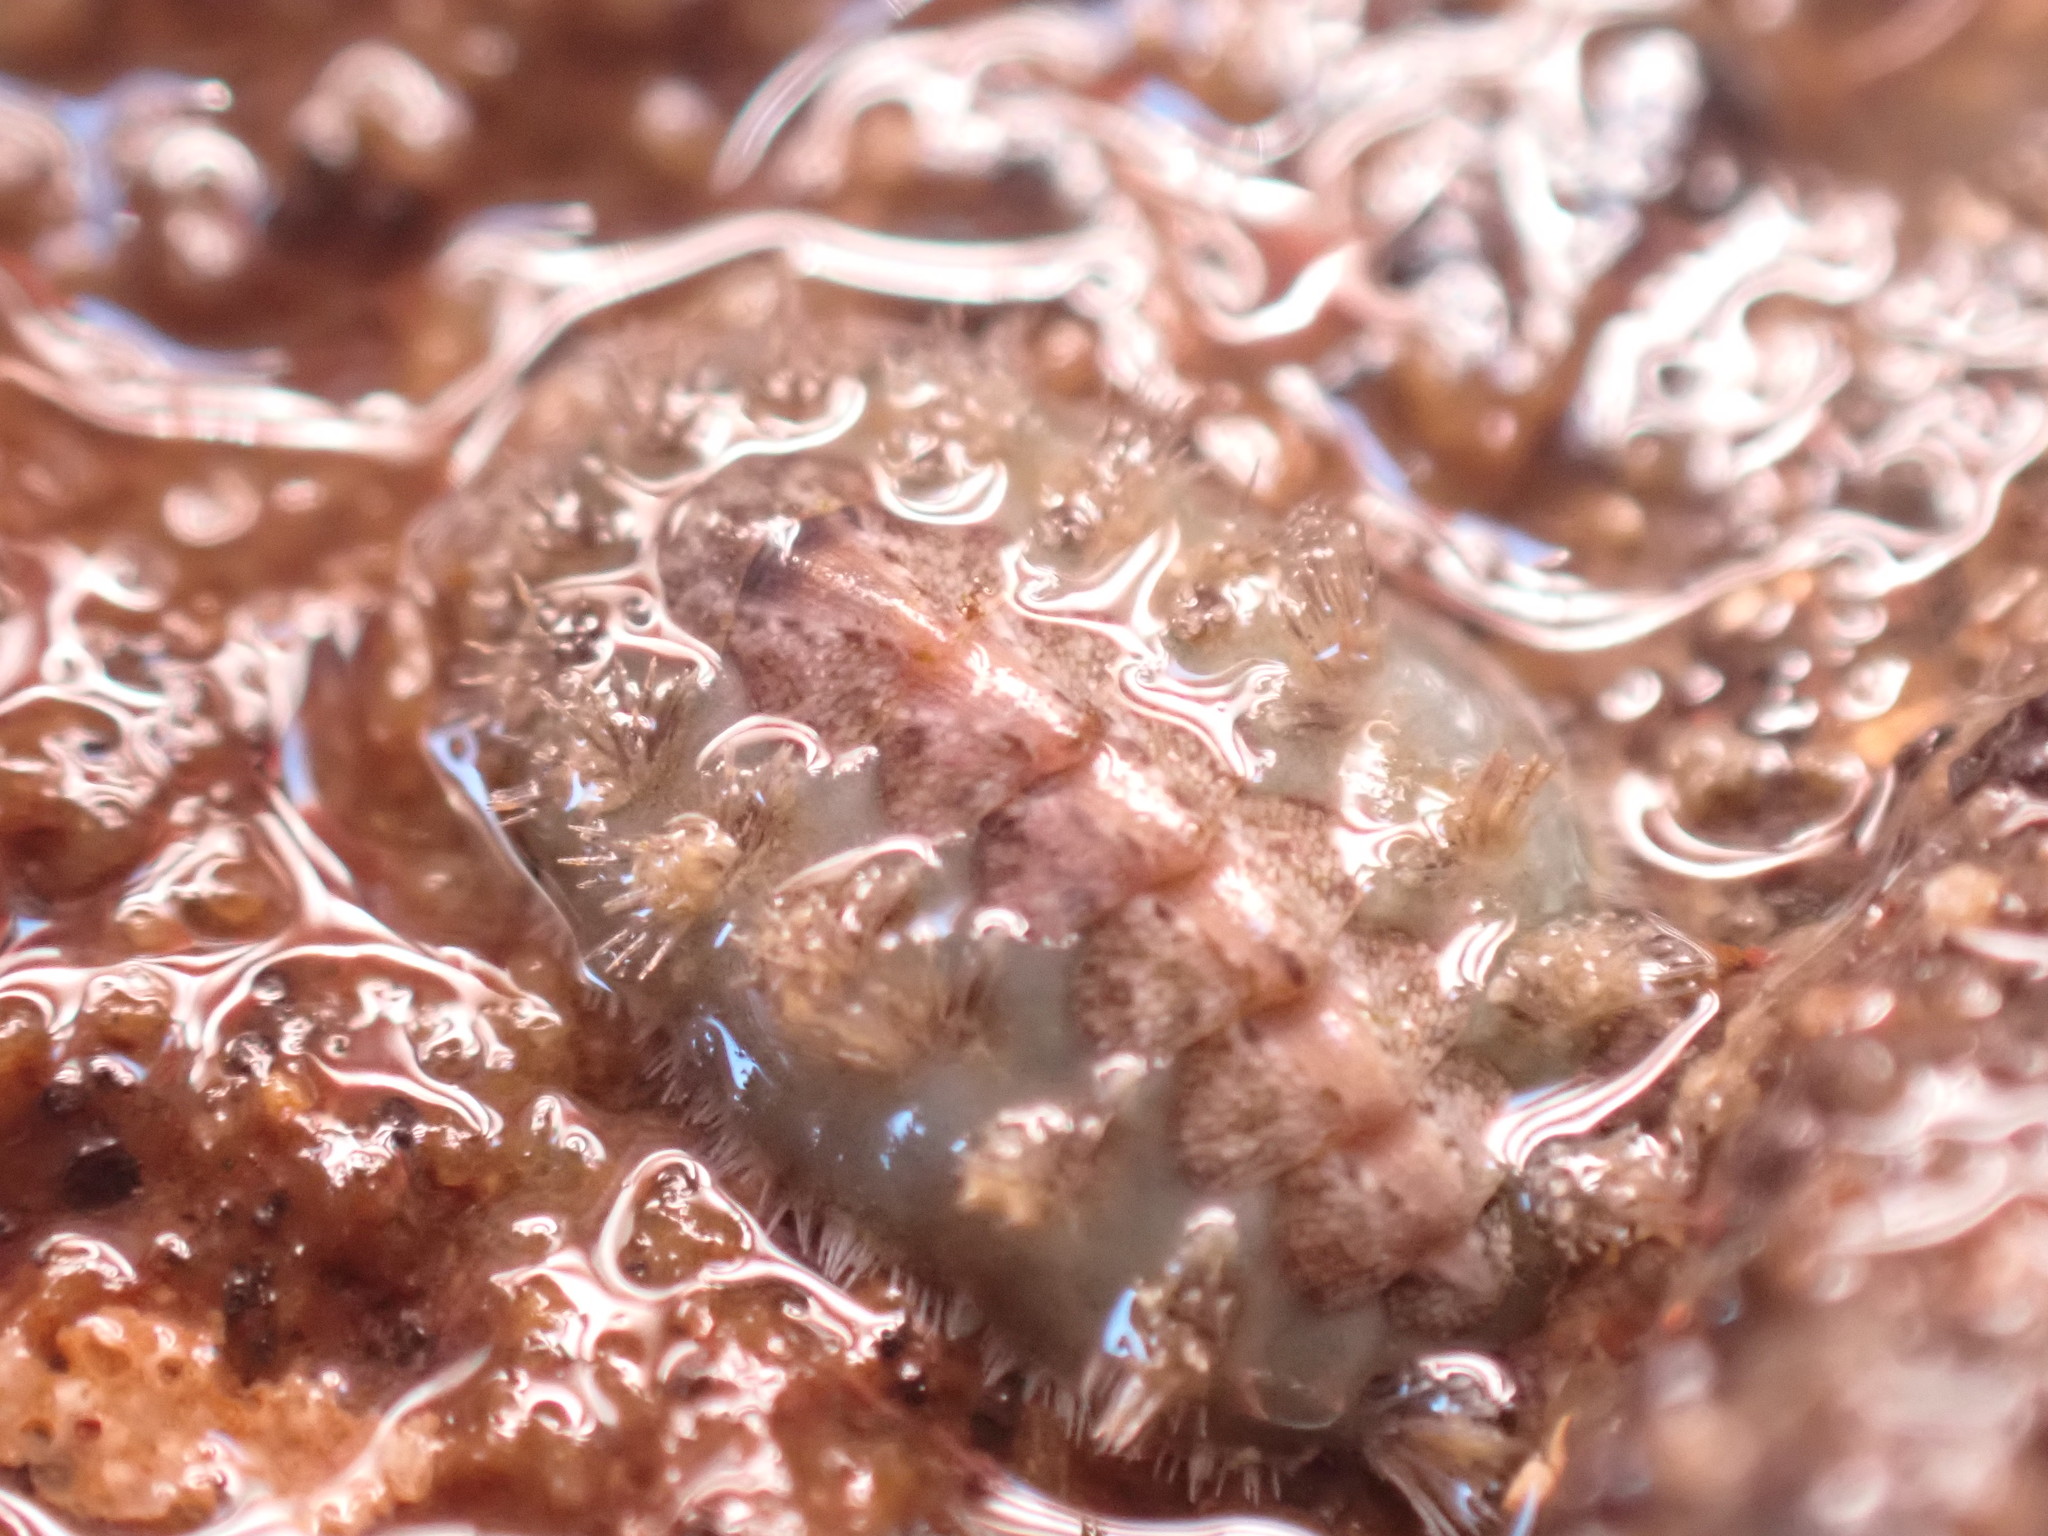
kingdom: Animalia
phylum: Mollusca
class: Polyplacophora
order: Chitonida
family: Acanthochitonidae
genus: Acanthochitona
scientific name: Acanthochitona zelandica
